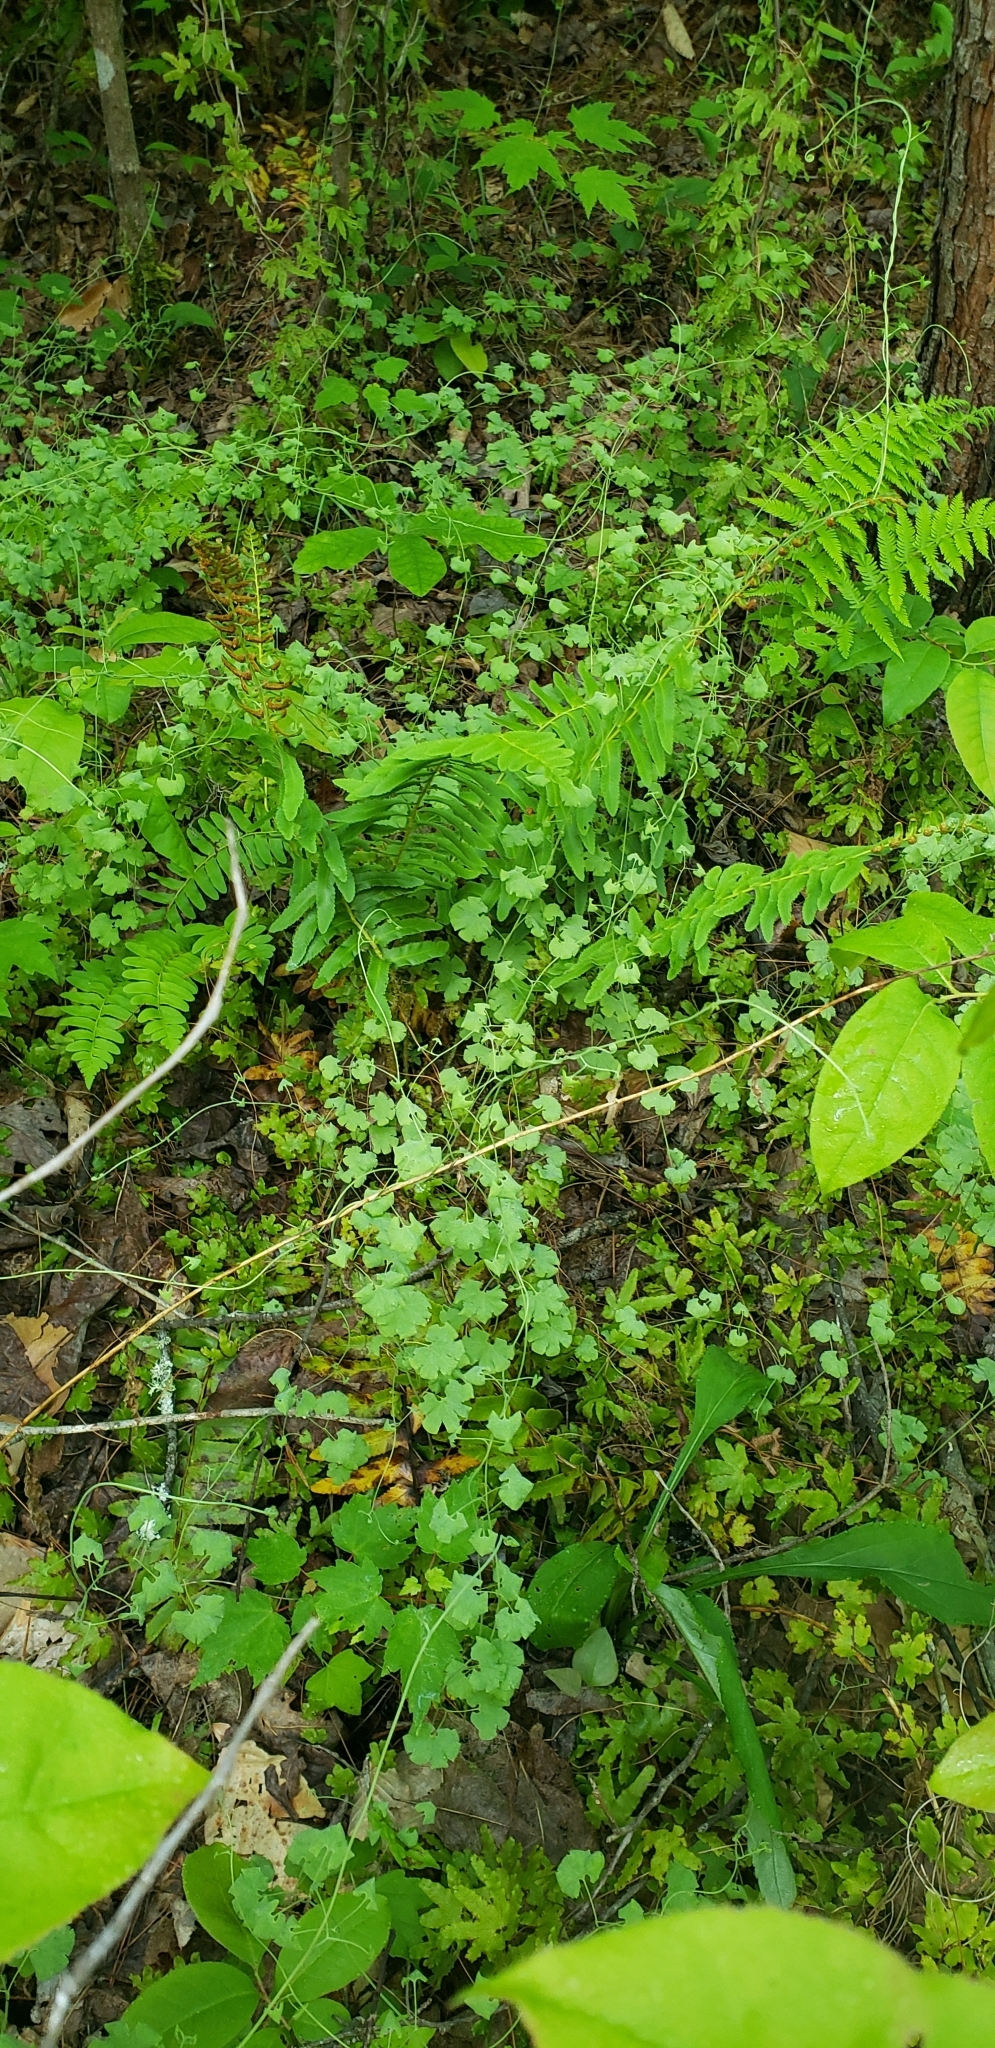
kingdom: Plantae
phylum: Tracheophyta
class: Polypodiopsida
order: Schizaeales
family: Lygodiaceae
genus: Lygodium
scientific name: Lygodium palmatum
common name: American climbing fern
